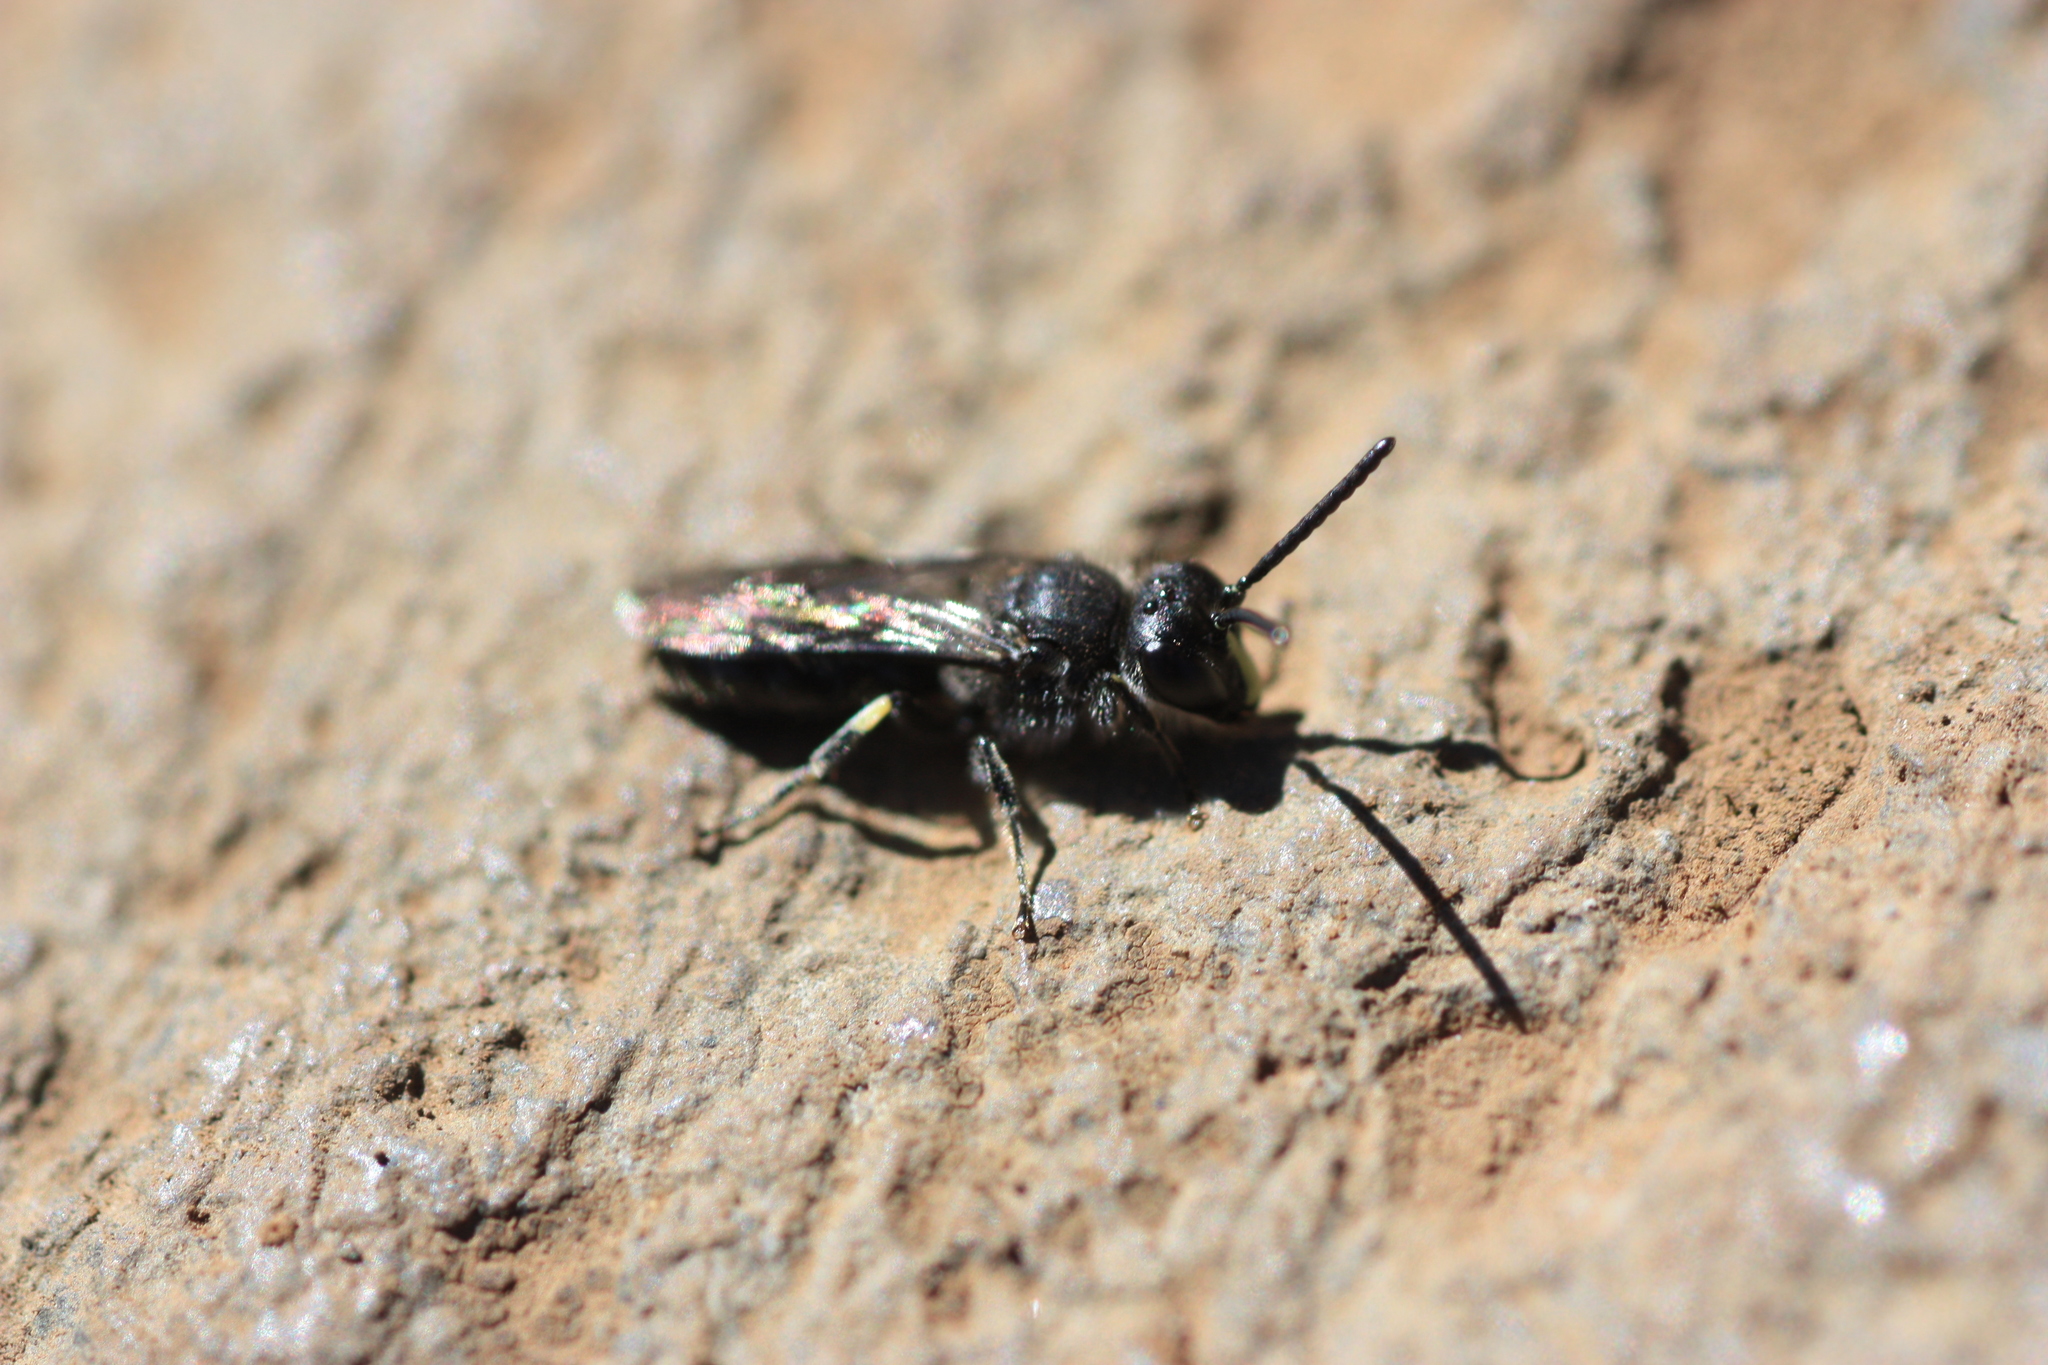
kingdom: Animalia
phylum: Arthropoda
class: Insecta
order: Hymenoptera
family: Colletidae
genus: Hylaeus
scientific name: Hylaeus nivicola
